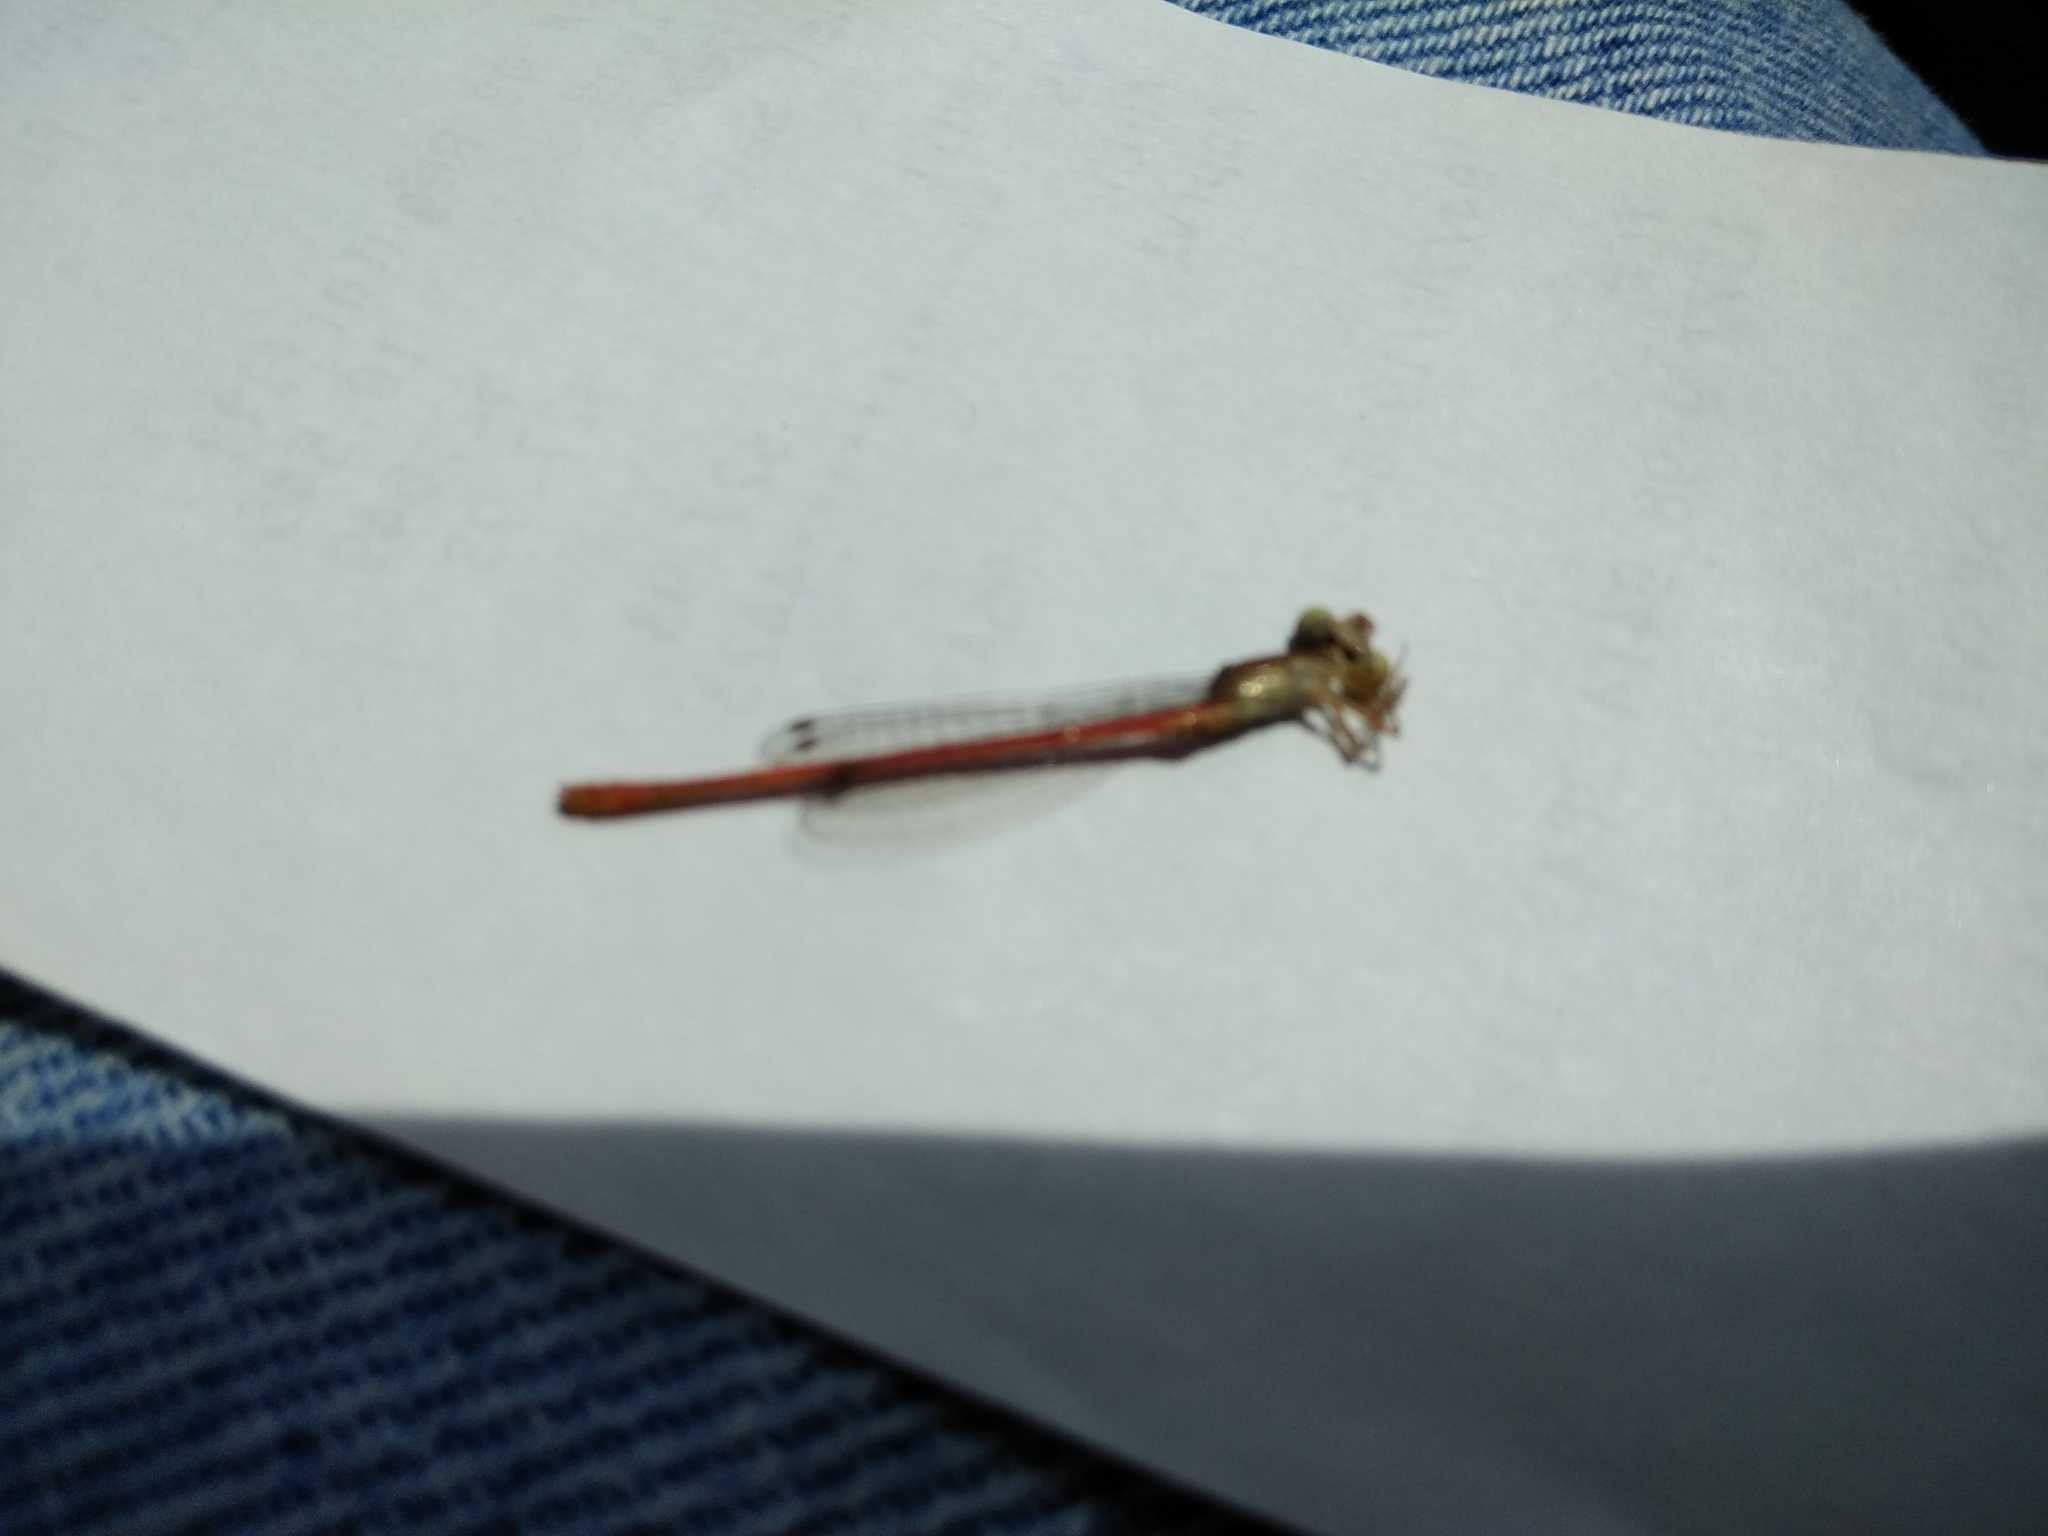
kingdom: Animalia
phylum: Arthropoda
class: Insecta
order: Odonata
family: Coenagrionidae
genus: Telebasis
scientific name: Telebasis byersi
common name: Duckweed firetail
